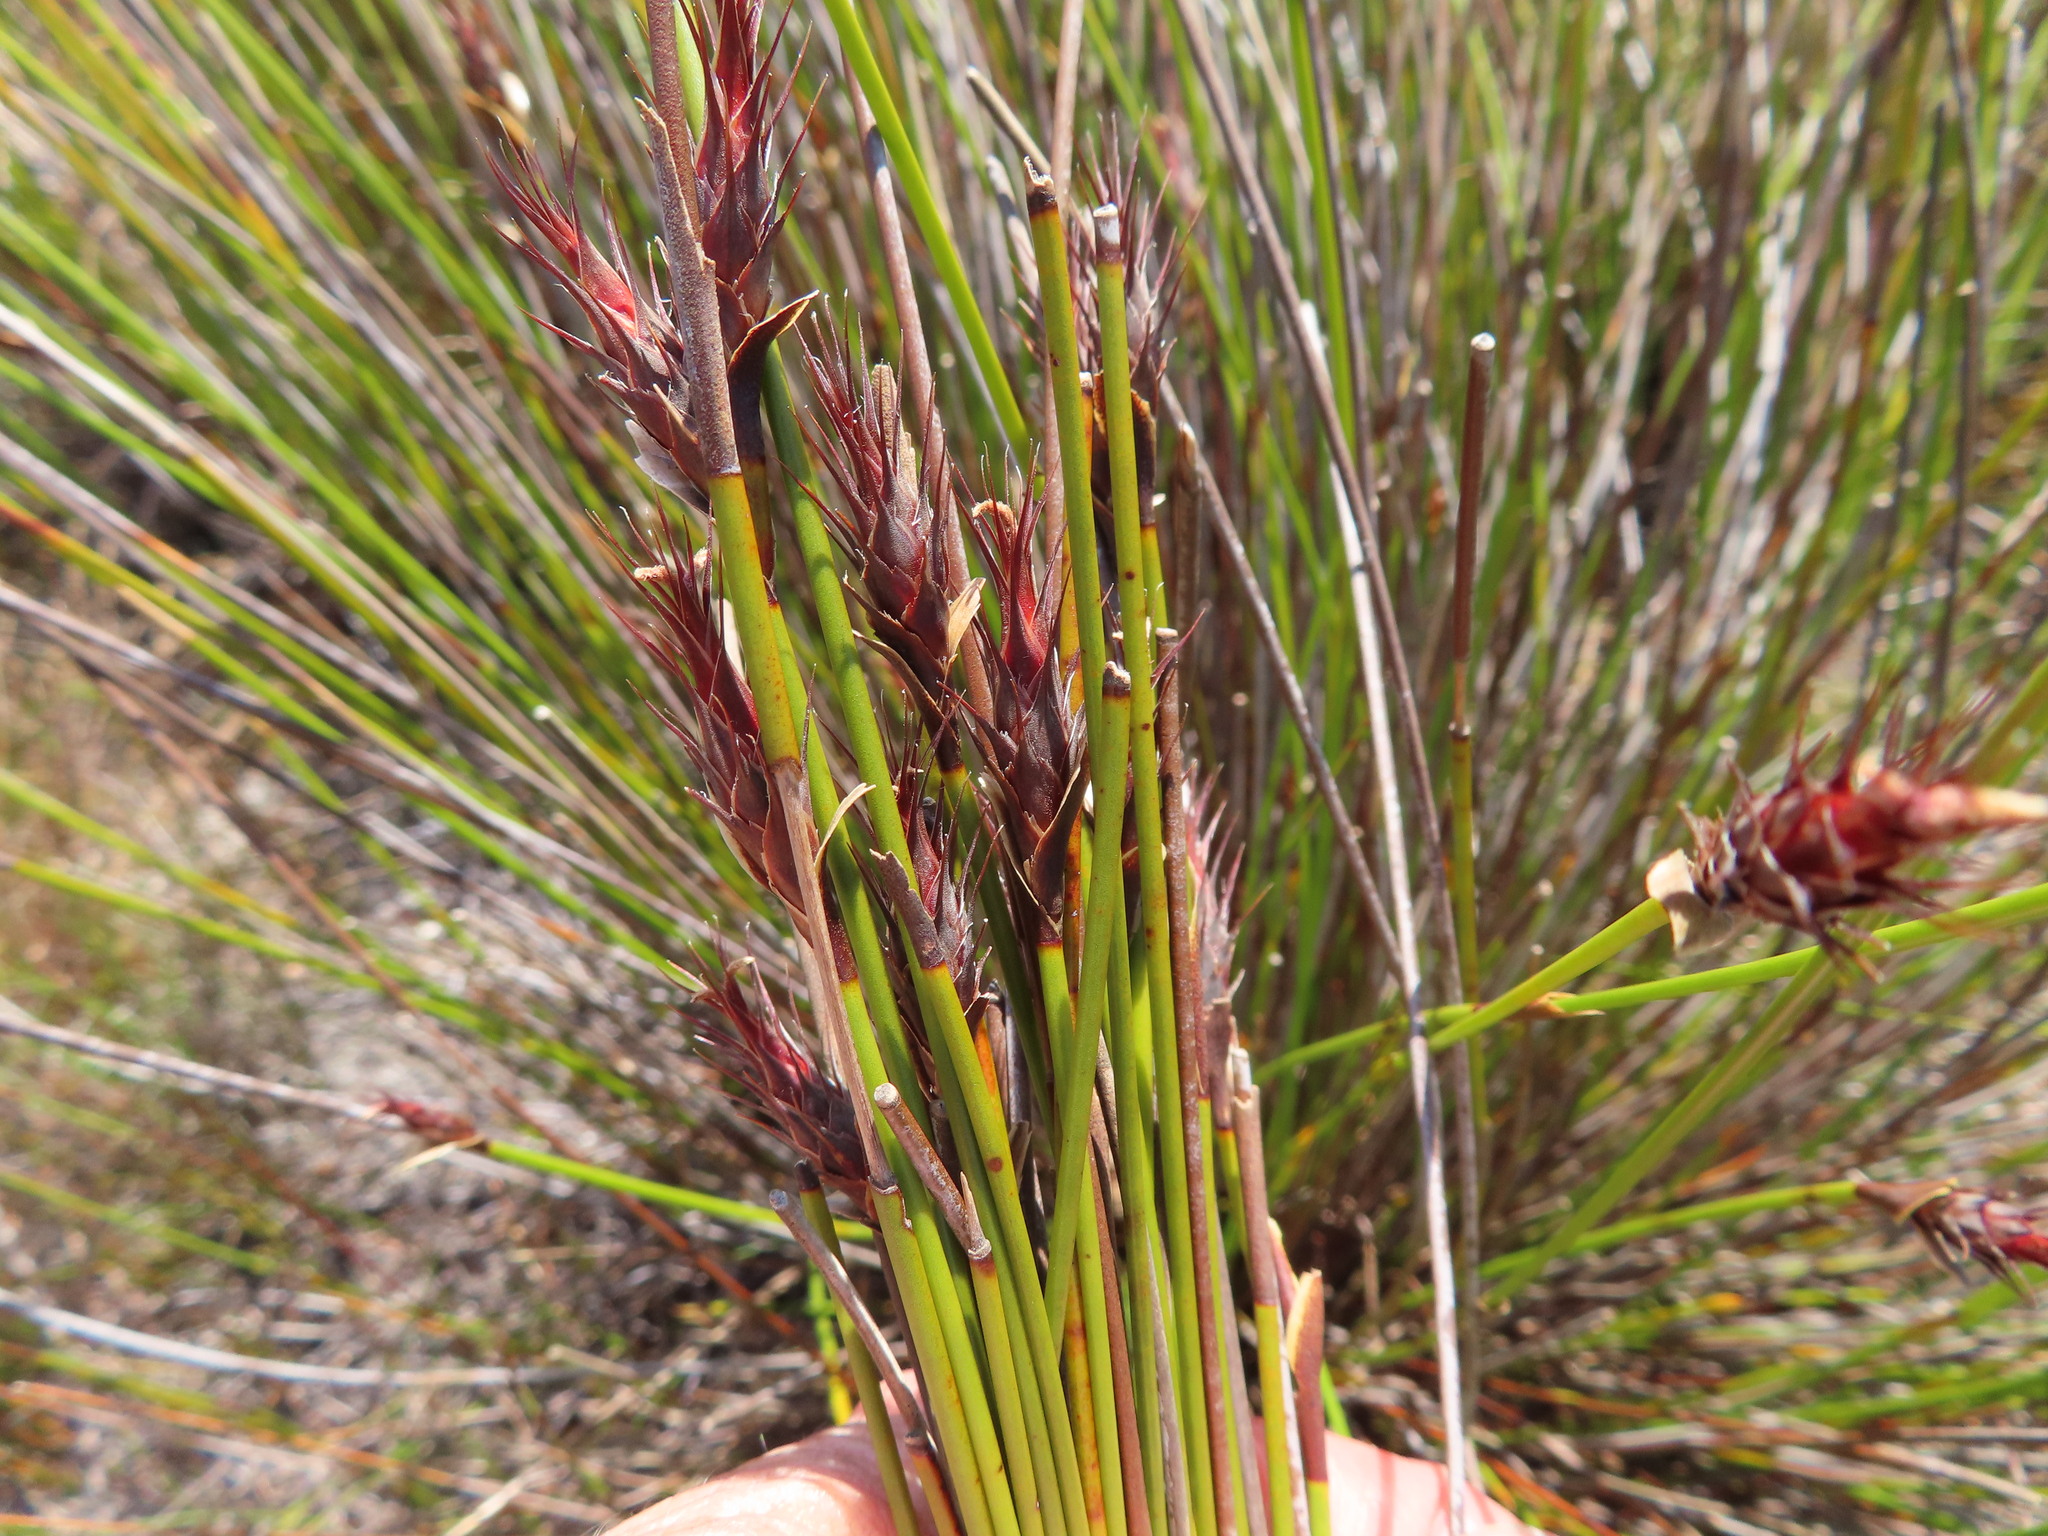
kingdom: Plantae
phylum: Tracheophyta
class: Liliopsida
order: Poales
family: Restionaceae
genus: Hypodiscus
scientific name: Hypodiscus aristatus
